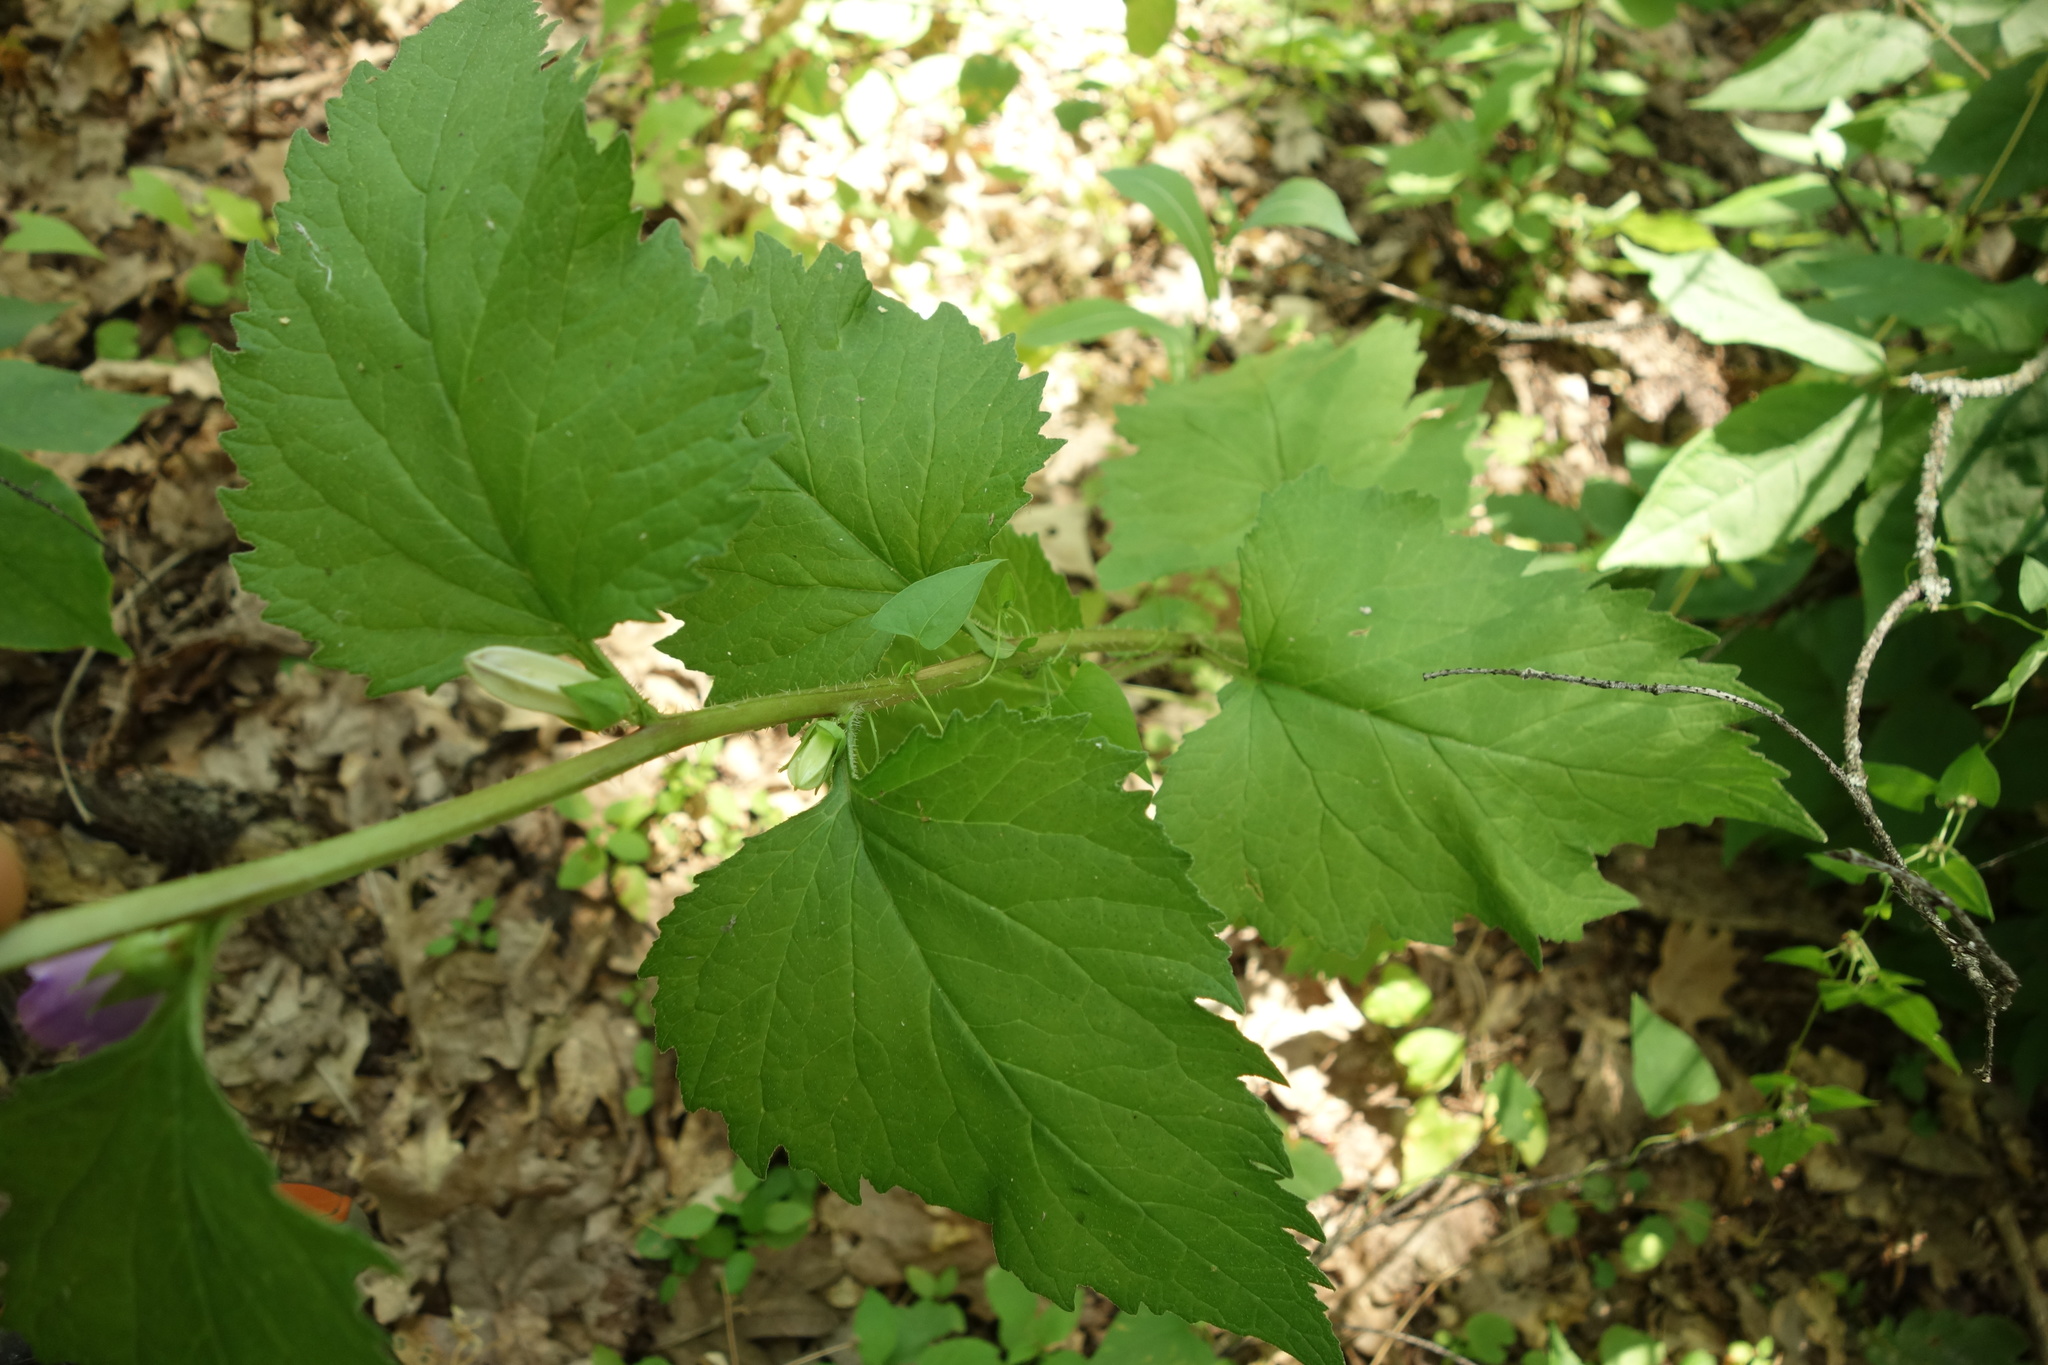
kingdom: Plantae
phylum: Tracheophyta
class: Magnoliopsida
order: Asterales
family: Campanulaceae
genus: Campanula
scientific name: Campanula trachelium
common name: Nettle-leaved bellflower
